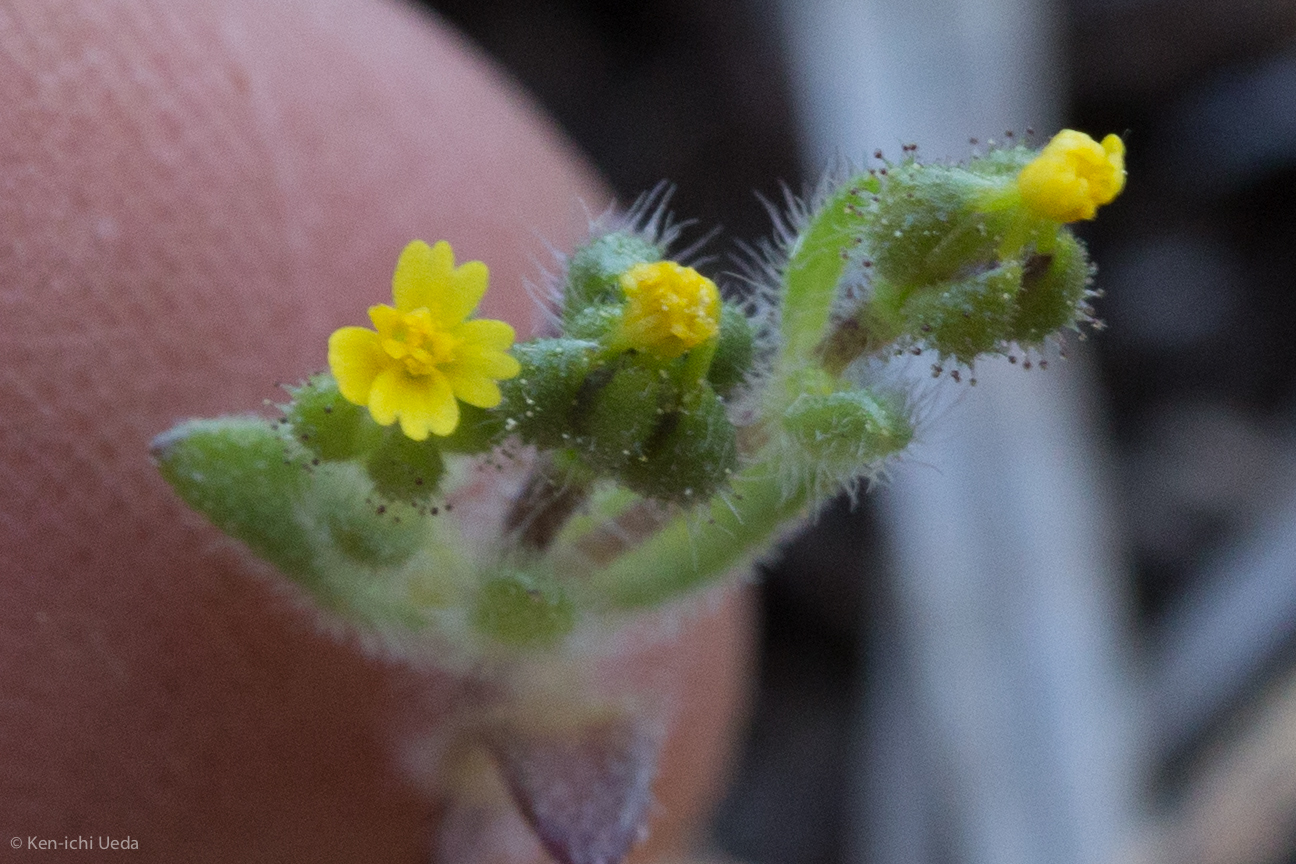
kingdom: Plantae
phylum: Tracheophyta
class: Magnoliopsida
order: Asterales
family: Asteraceae
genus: Hemizonella
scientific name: Hemizonella minima
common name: Opposite-leaved tarweed
